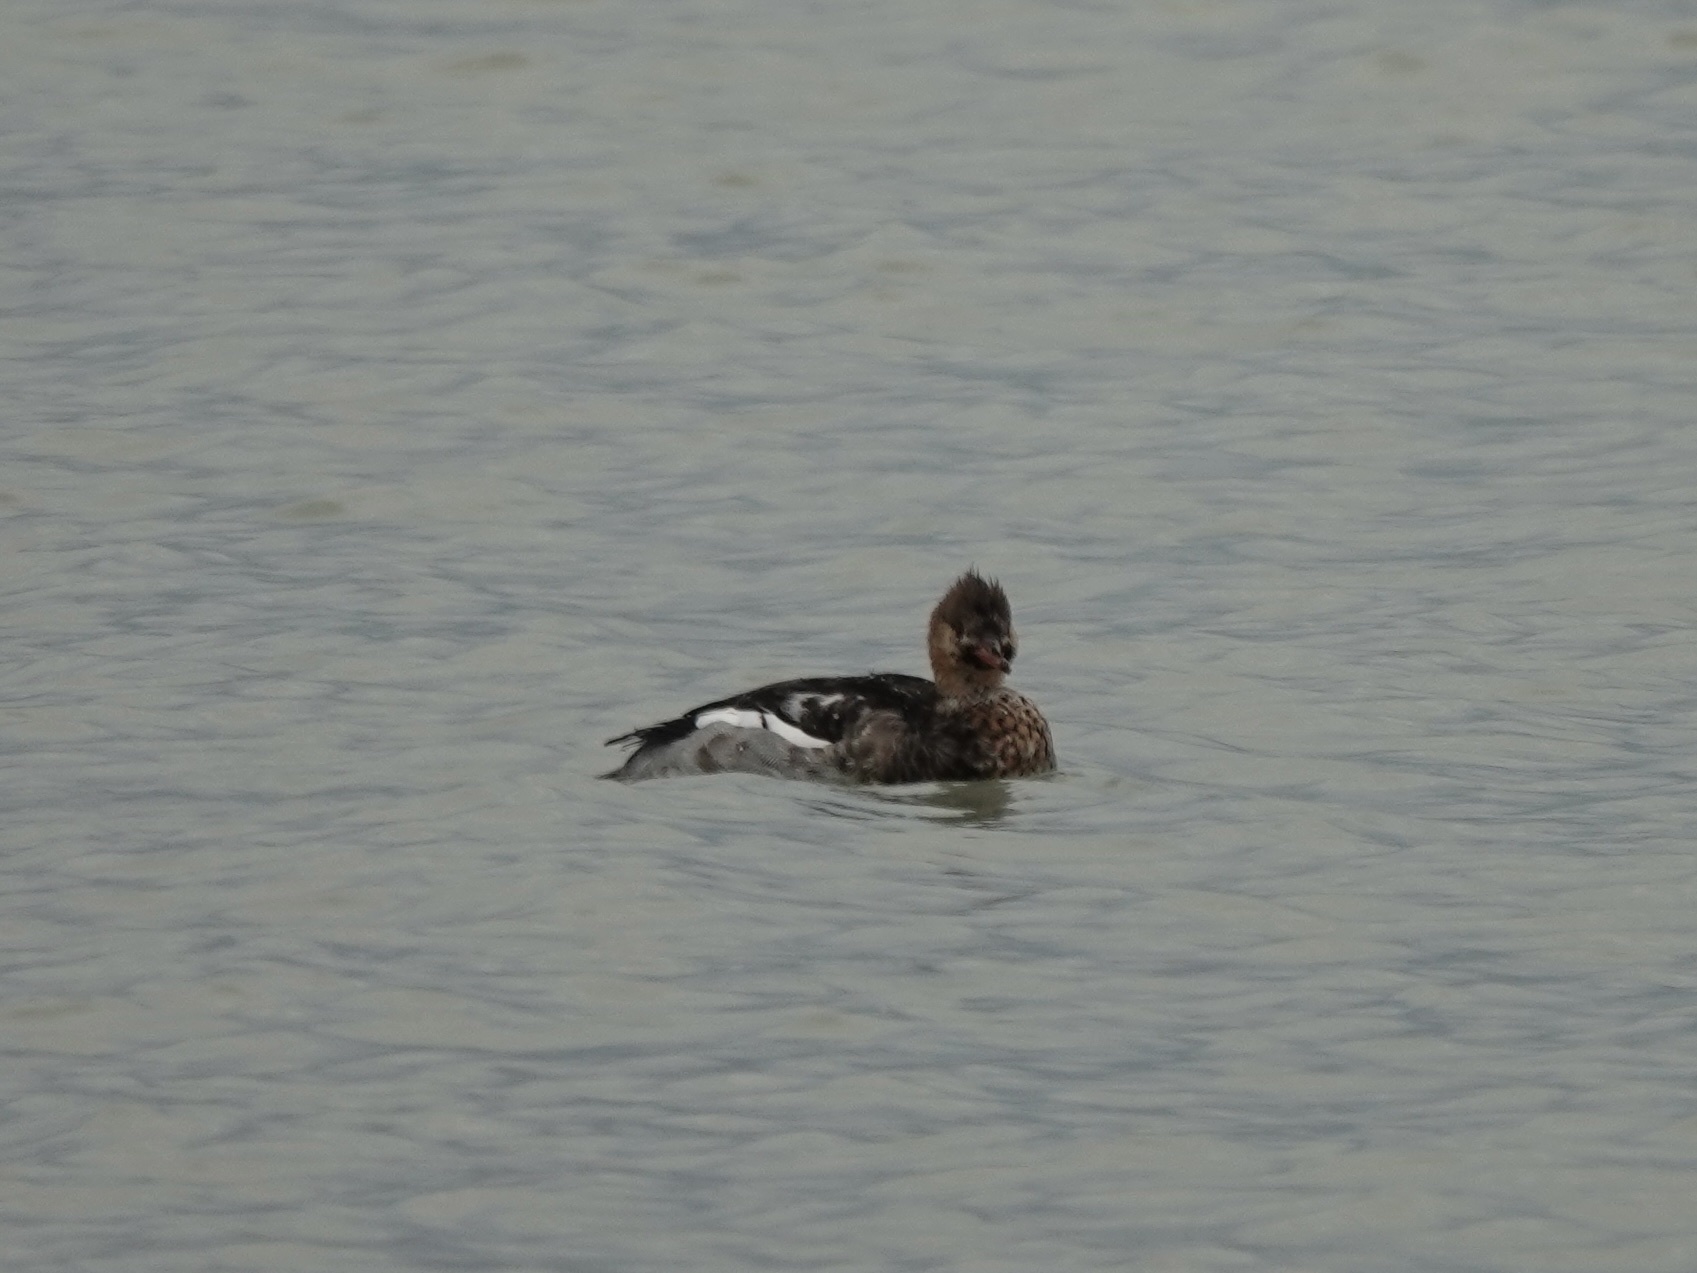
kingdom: Animalia
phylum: Chordata
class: Aves
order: Anseriformes
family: Anatidae
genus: Mergus
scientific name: Mergus serrator
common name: Red-breasted merganser
